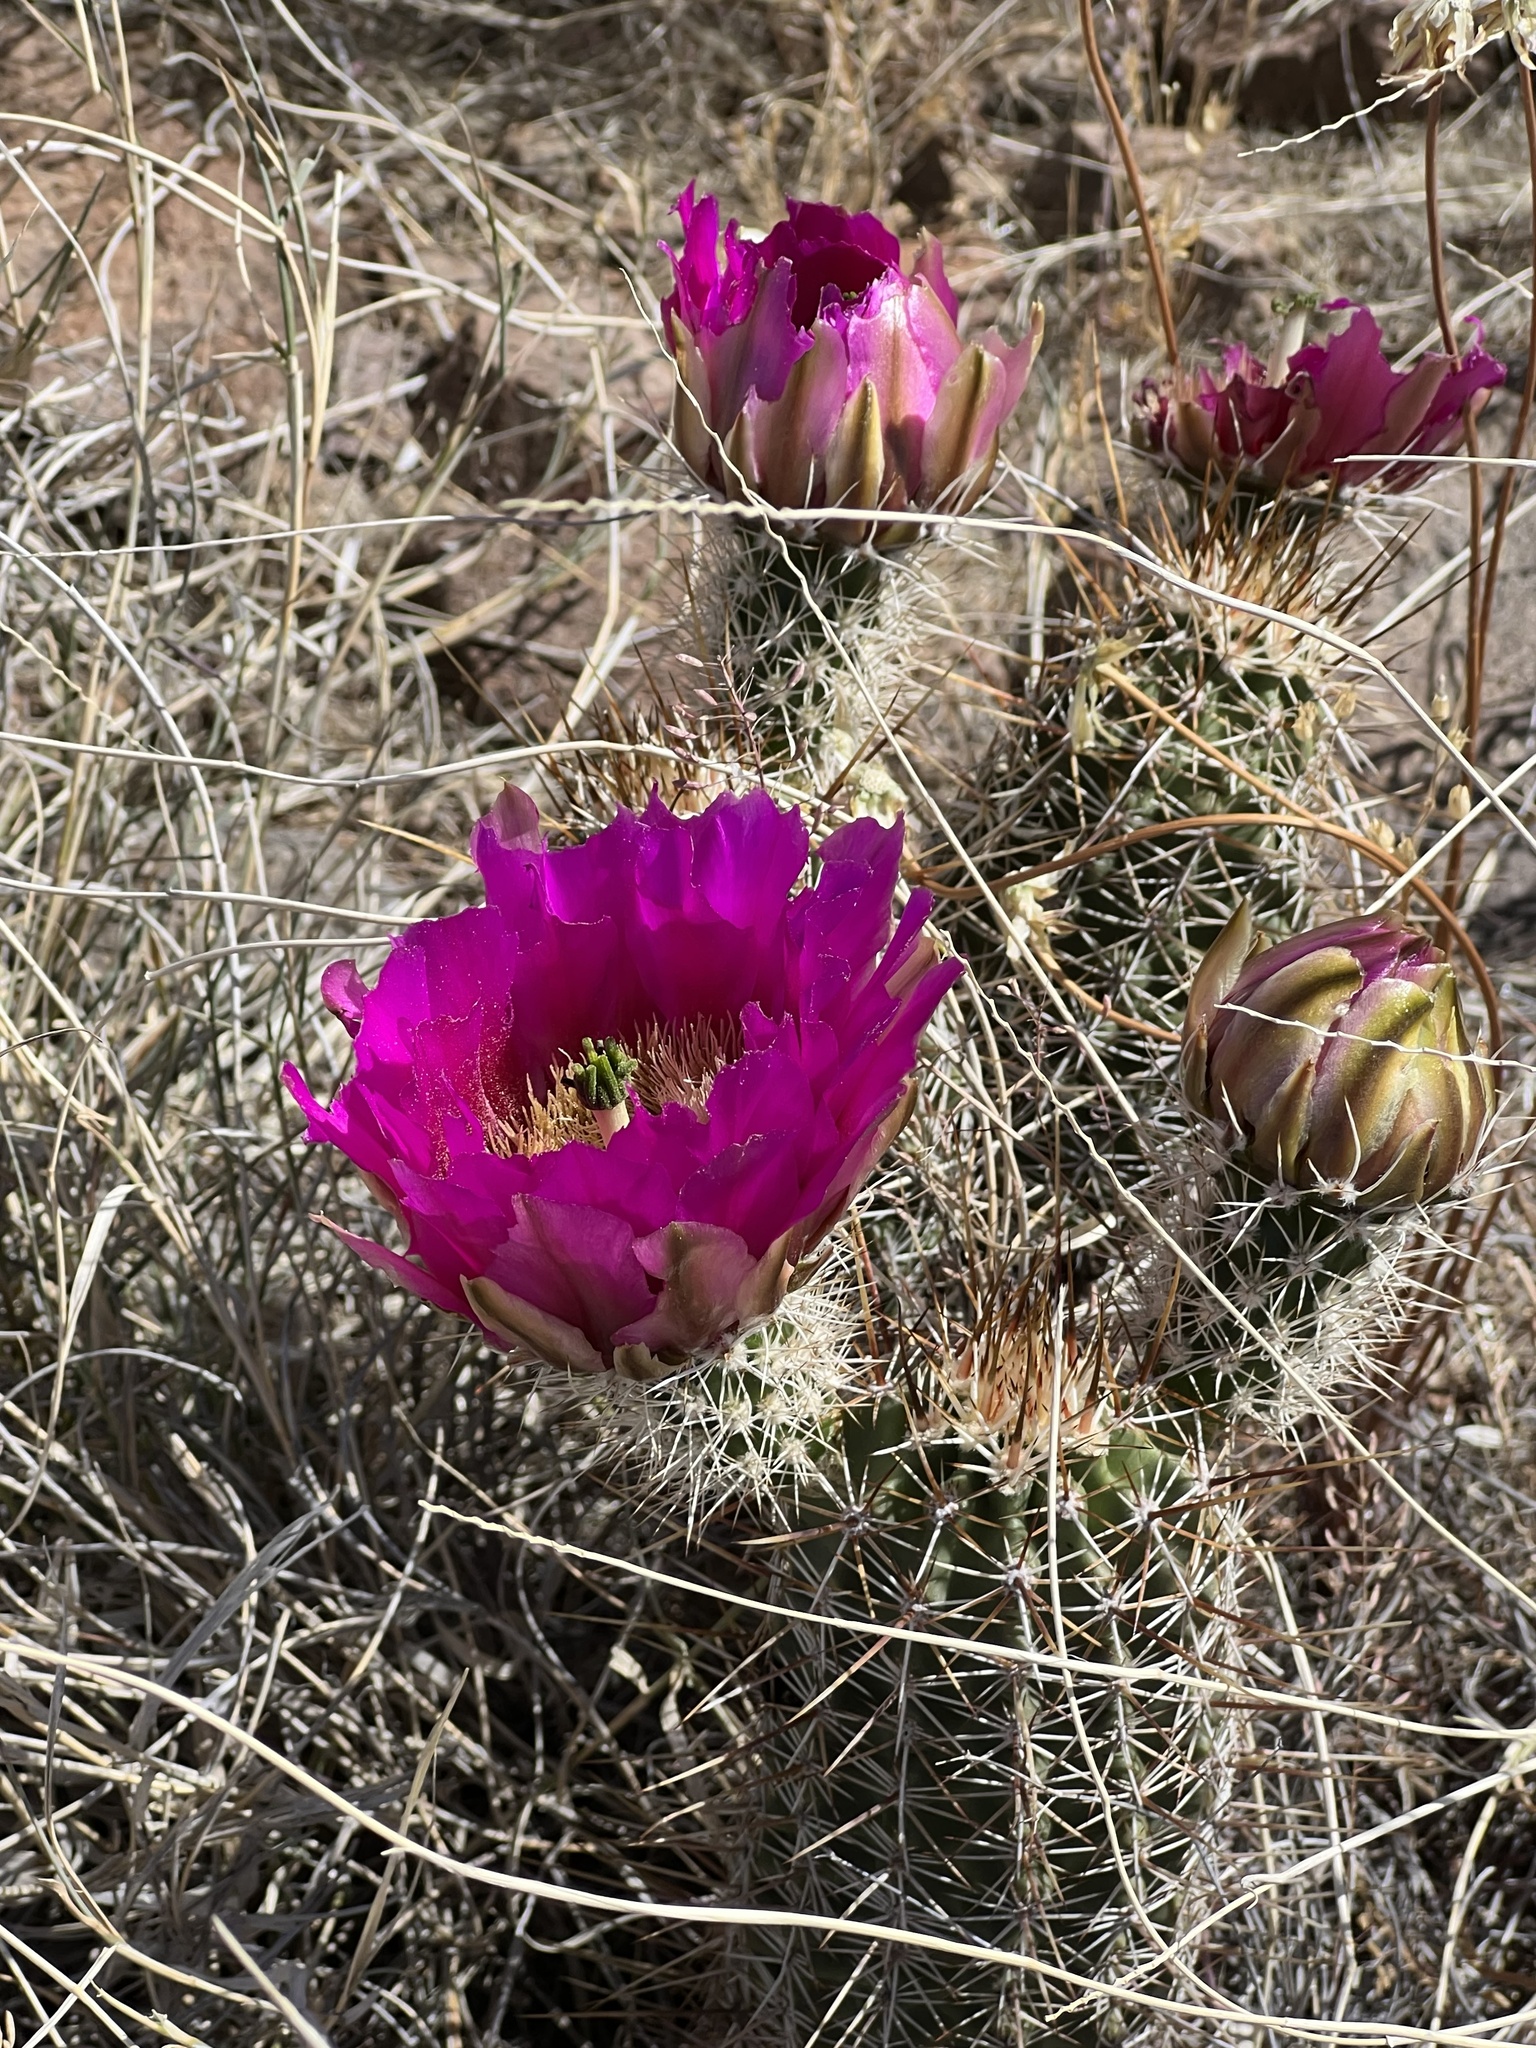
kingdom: Plantae
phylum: Tracheophyta
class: Magnoliopsida
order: Caryophyllales
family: Cactaceae
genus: Echinocereus
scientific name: Echinocereus fendleri
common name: Fendler's hedgehog cactus
